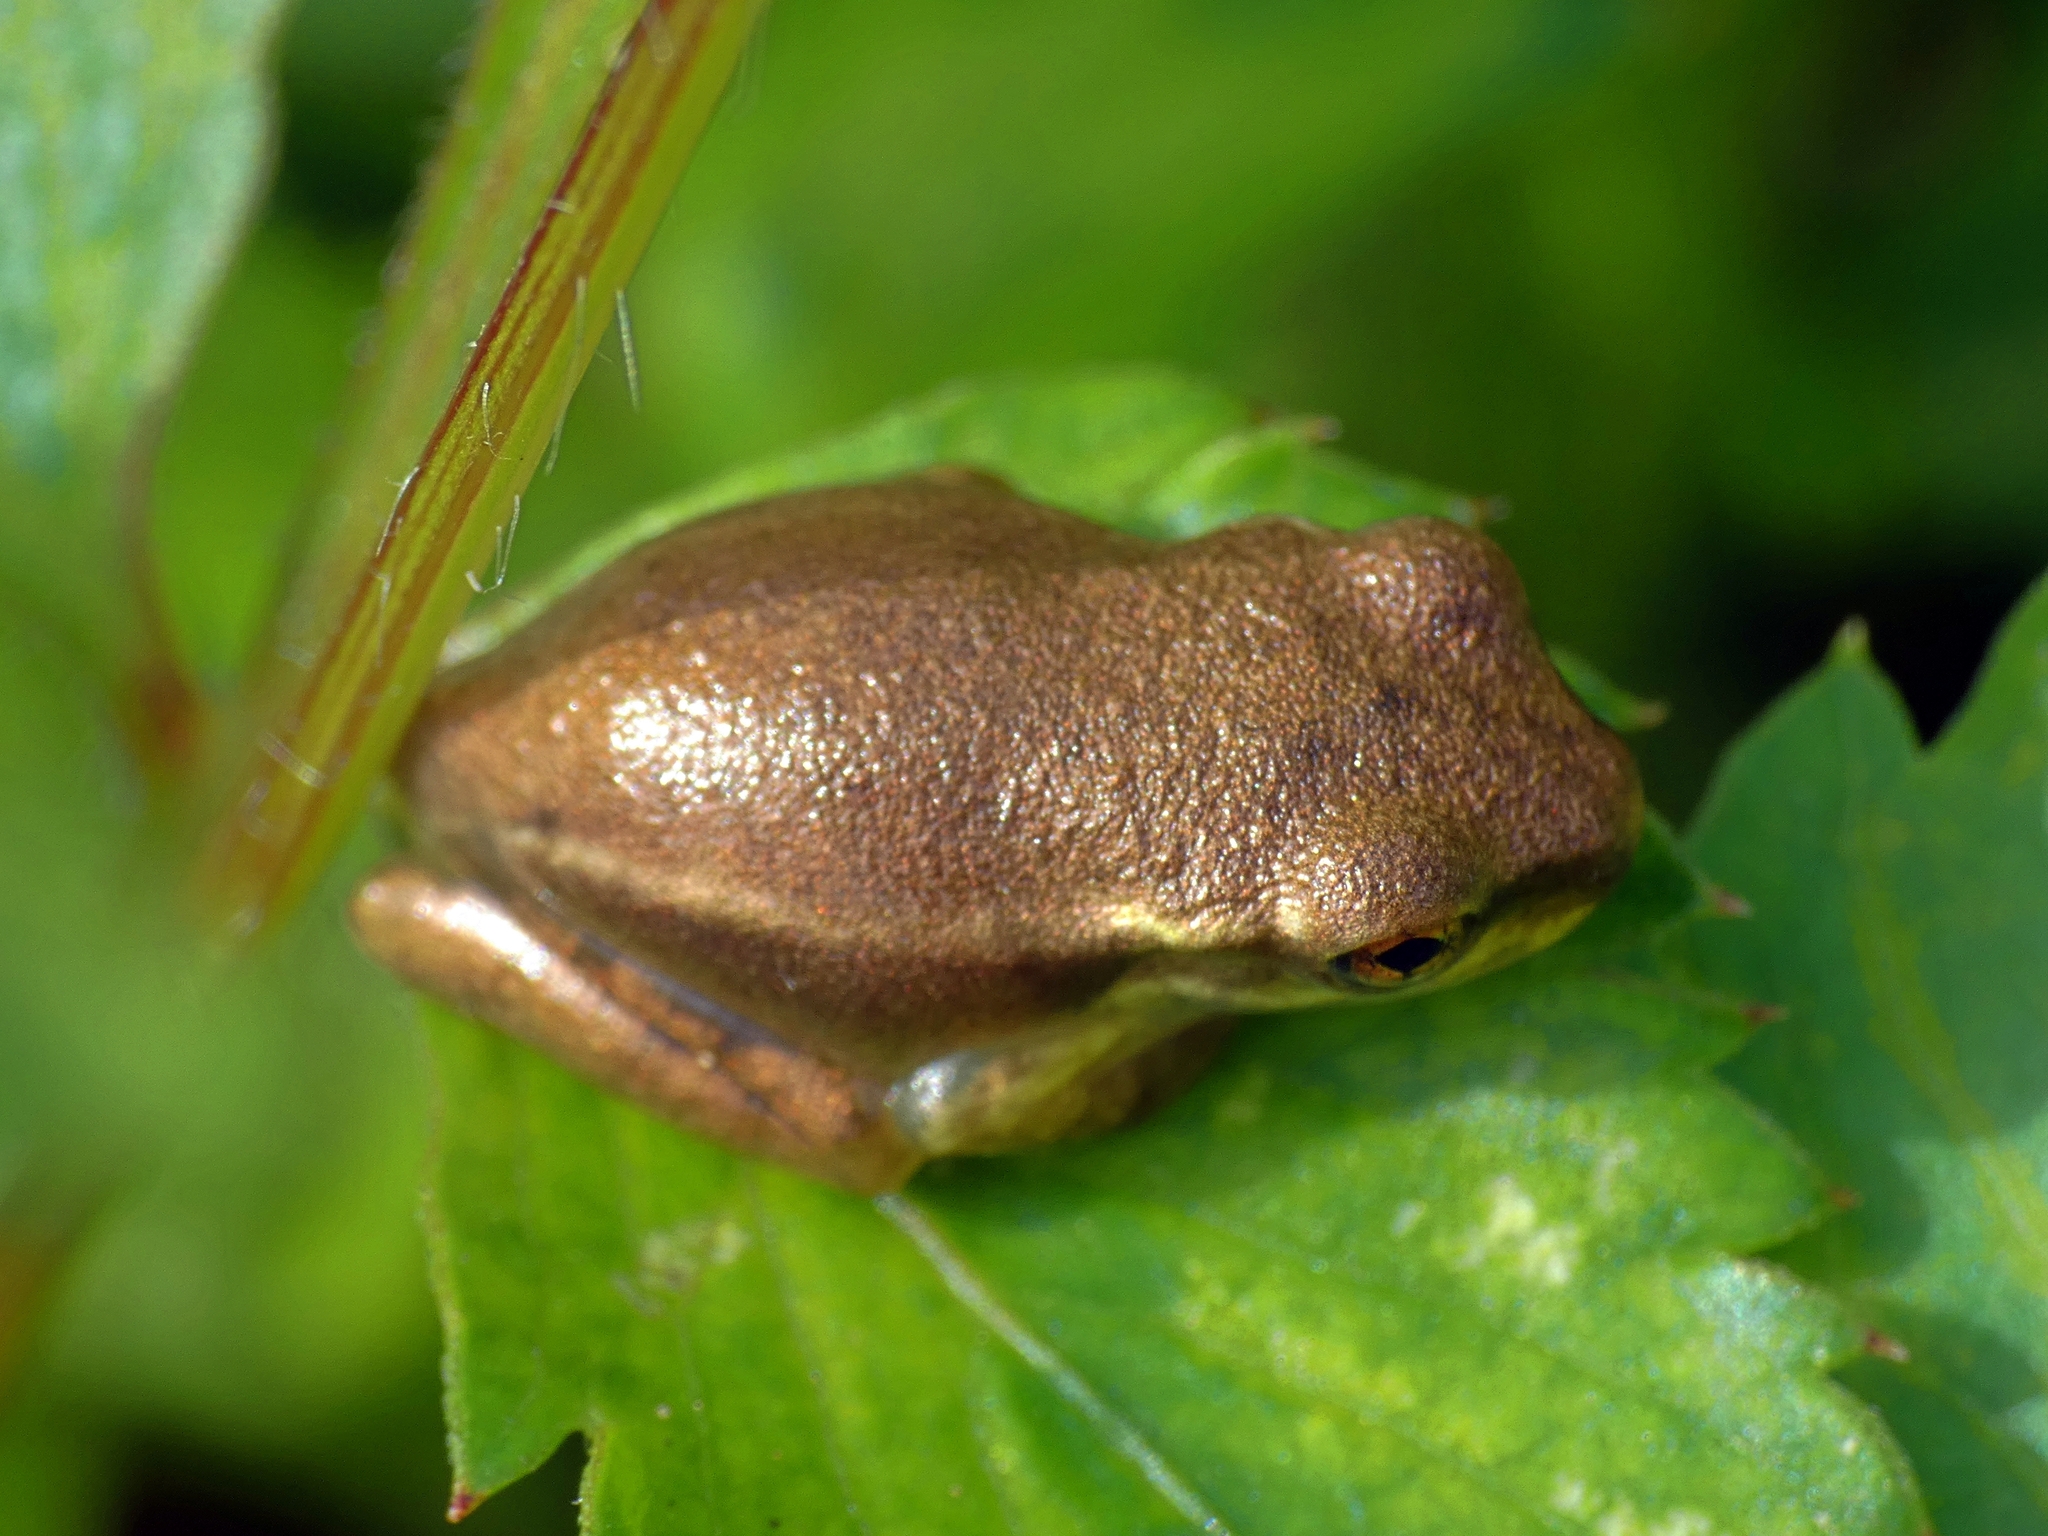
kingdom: Animalia
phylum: Chordata
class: Amphibia
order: Anura
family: Hylidae
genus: Osteopilus
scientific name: Osteopilus septentrionalis
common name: Cuban treefrog
